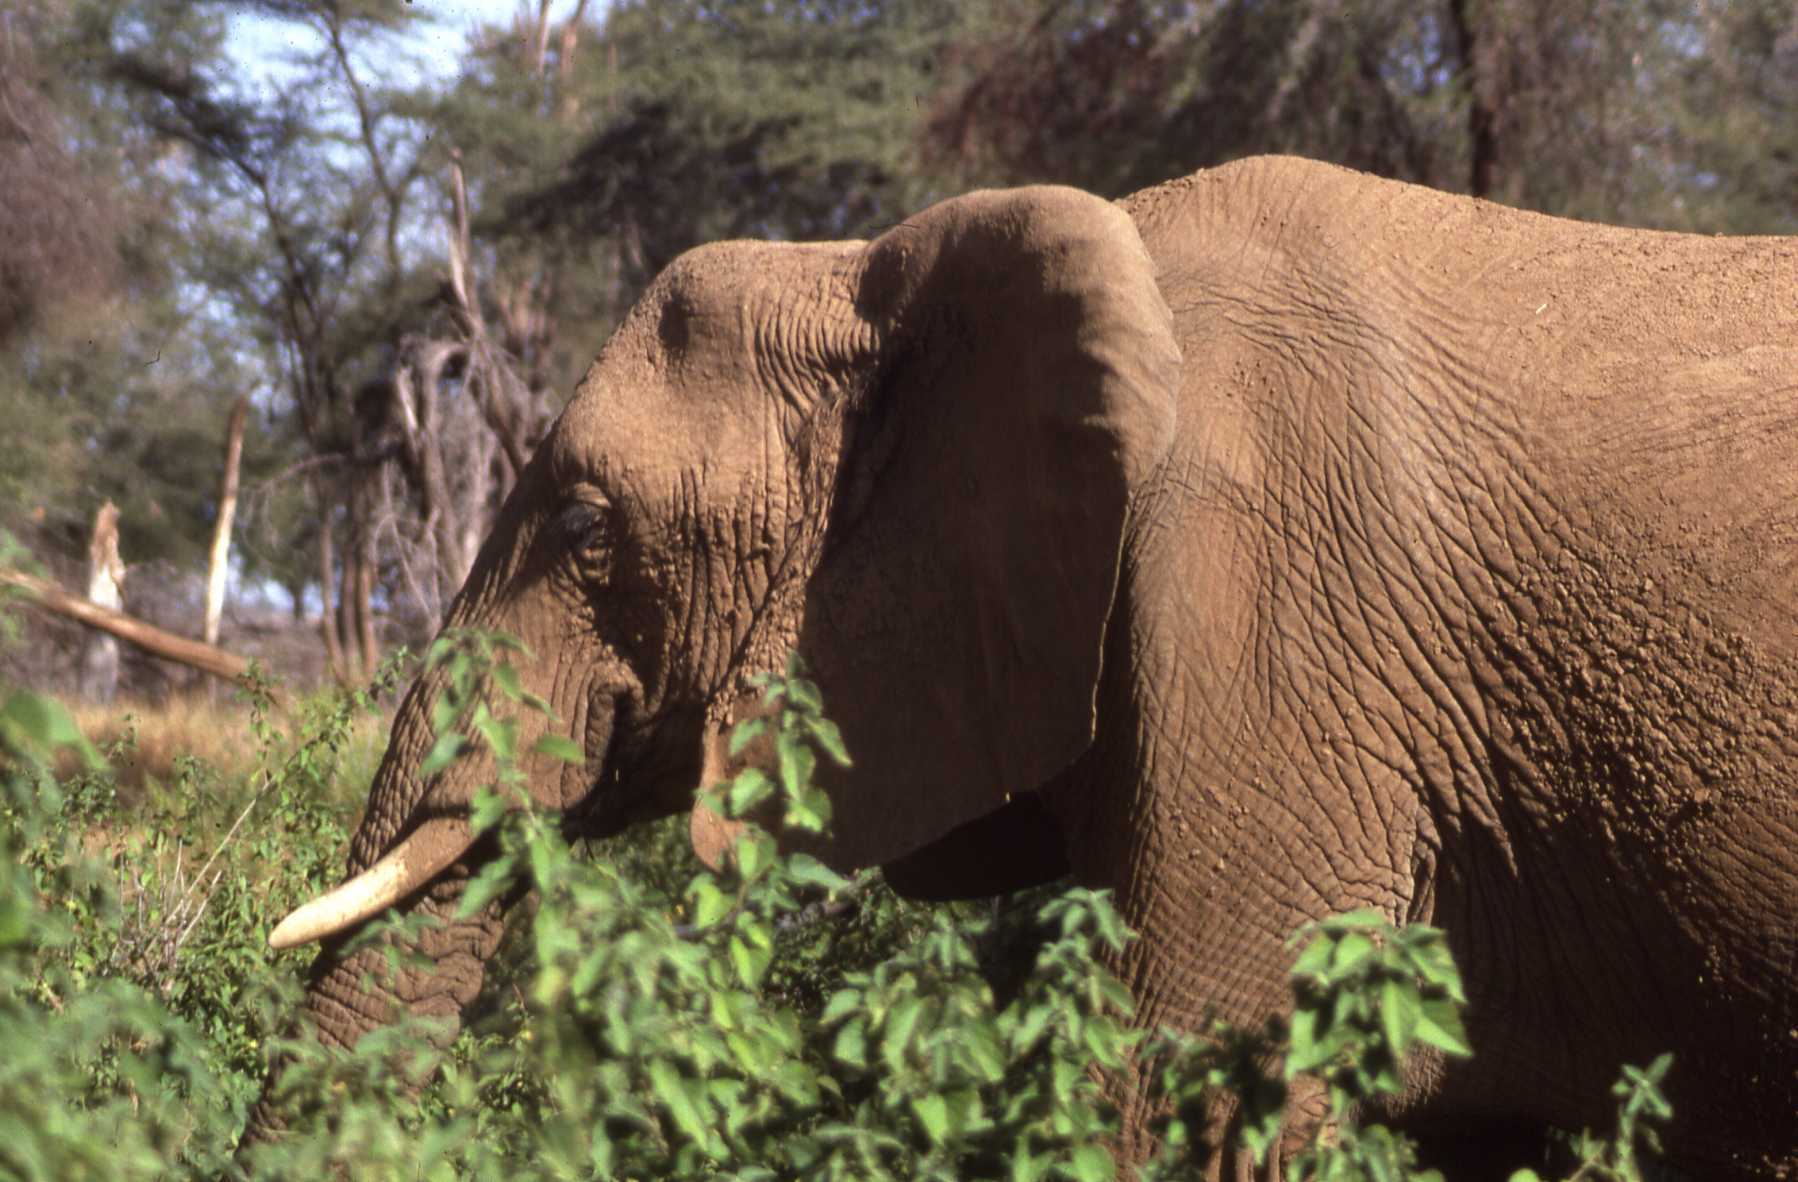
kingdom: Animalia
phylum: Chordata
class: Mammalia
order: Proboscidea
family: Elephantidae
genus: Loxodonta
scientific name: Loxodonta africana
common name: African elephant
